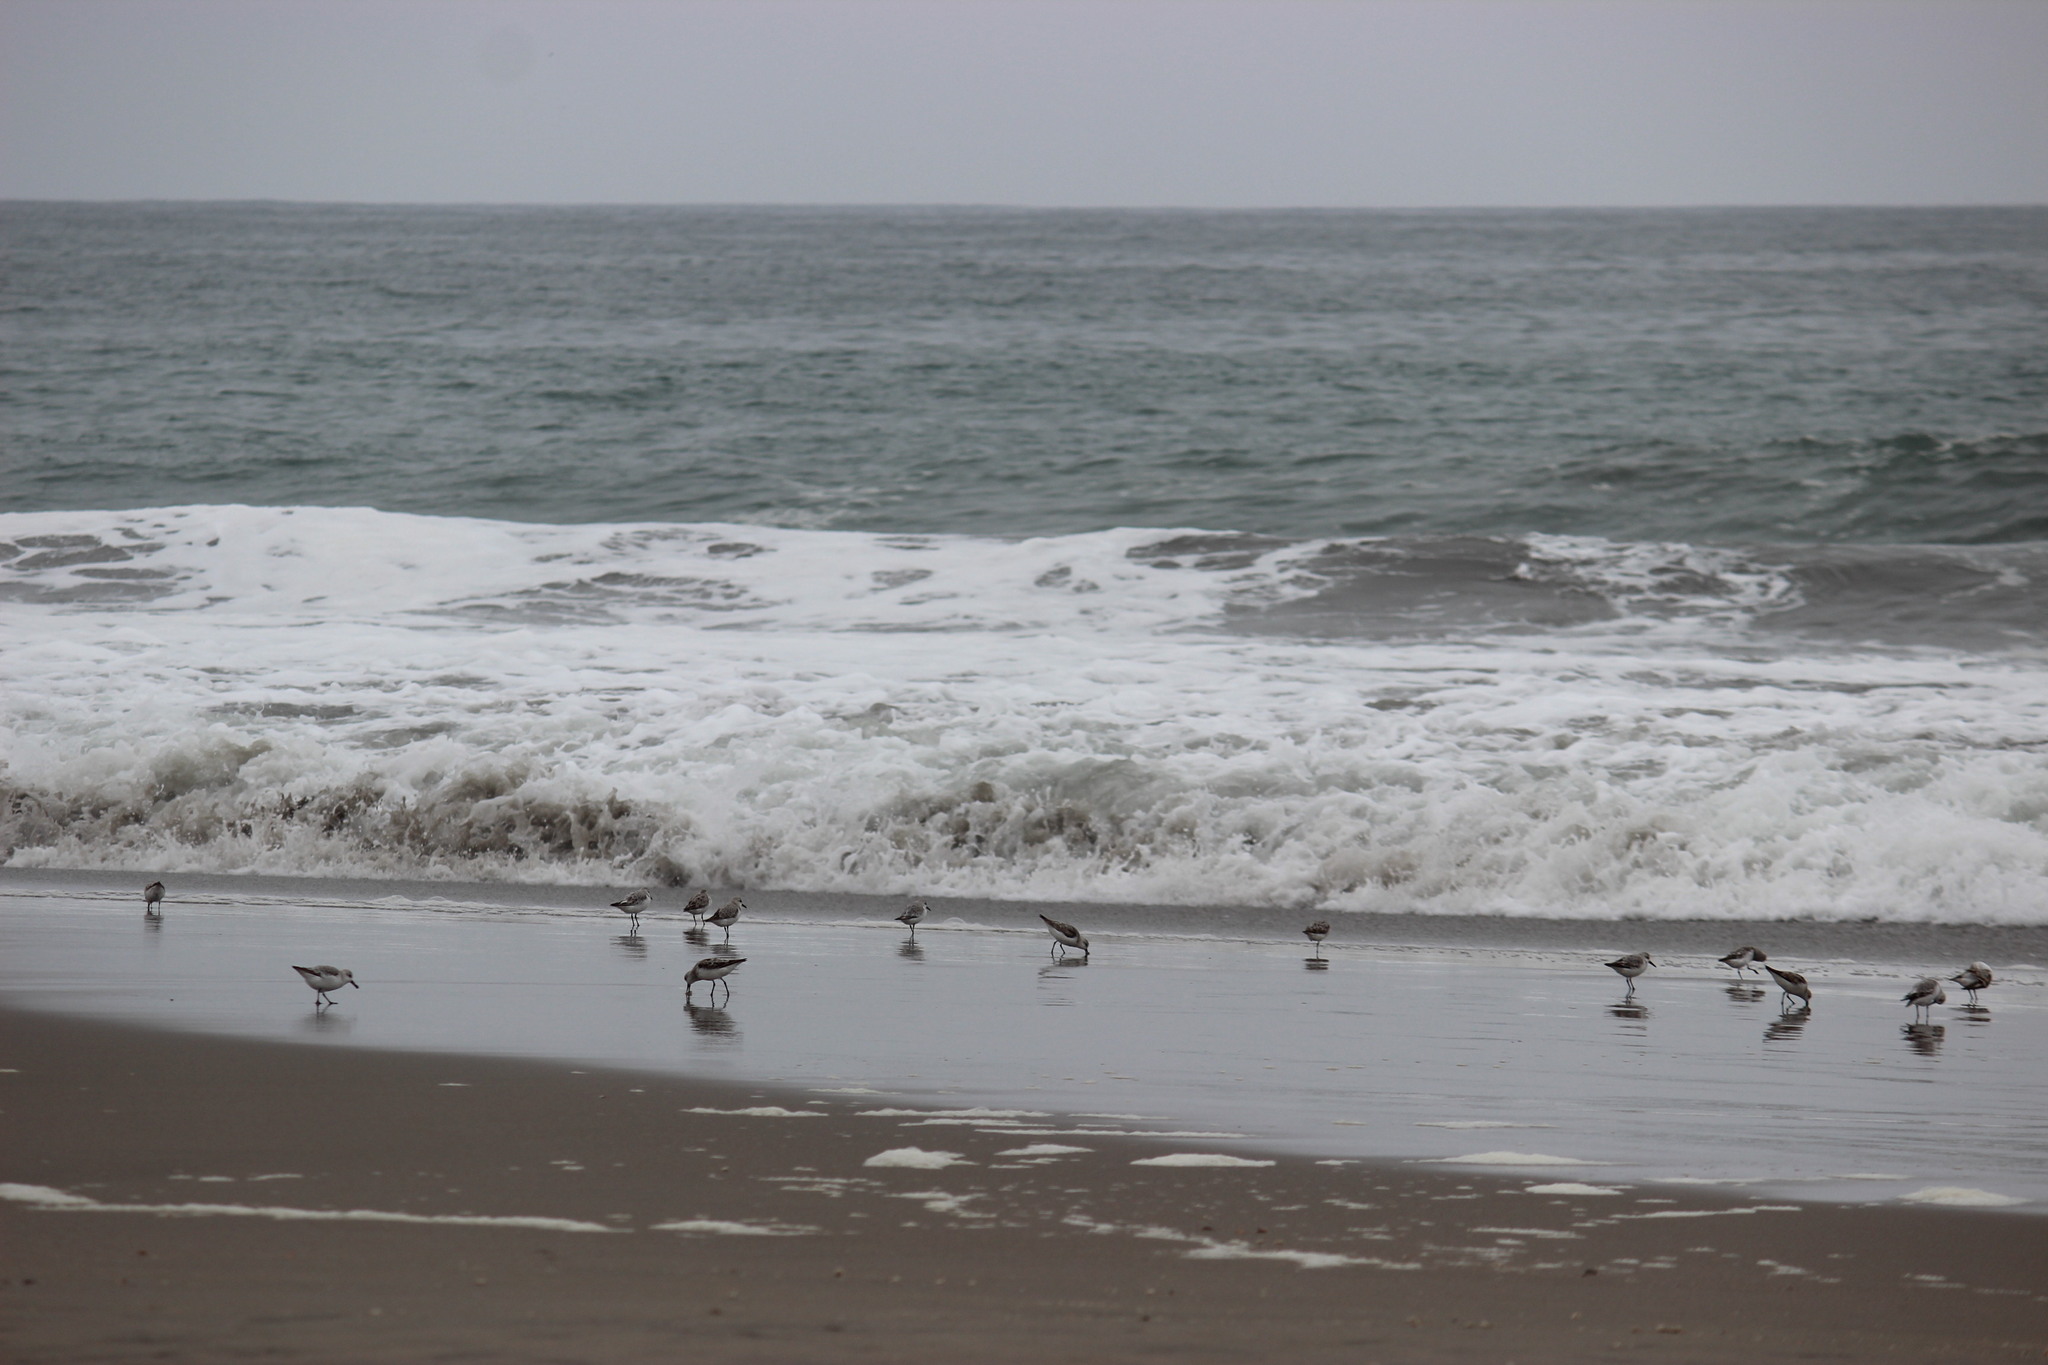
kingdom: Animalia
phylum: Chordata
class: Aves
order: Charadriiformes
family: Scolopacidae
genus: Calidris
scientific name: Calidris alba
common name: Sanderling
